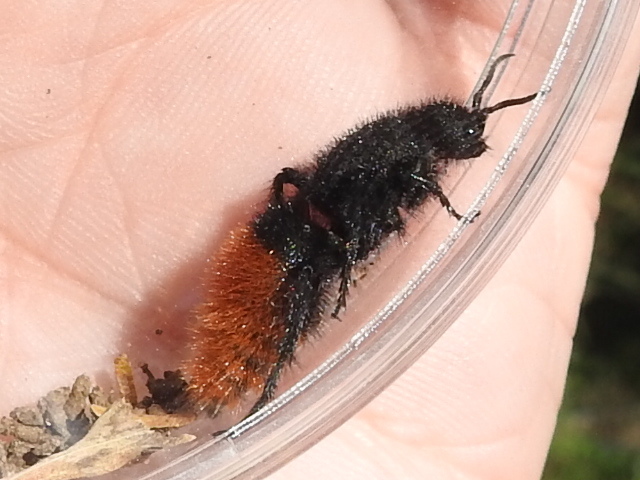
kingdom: Animalia
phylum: Arthropoda
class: Insecta
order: Hymenoptera
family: Mutillidae
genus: Dasymutilla
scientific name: Dasymutilla
